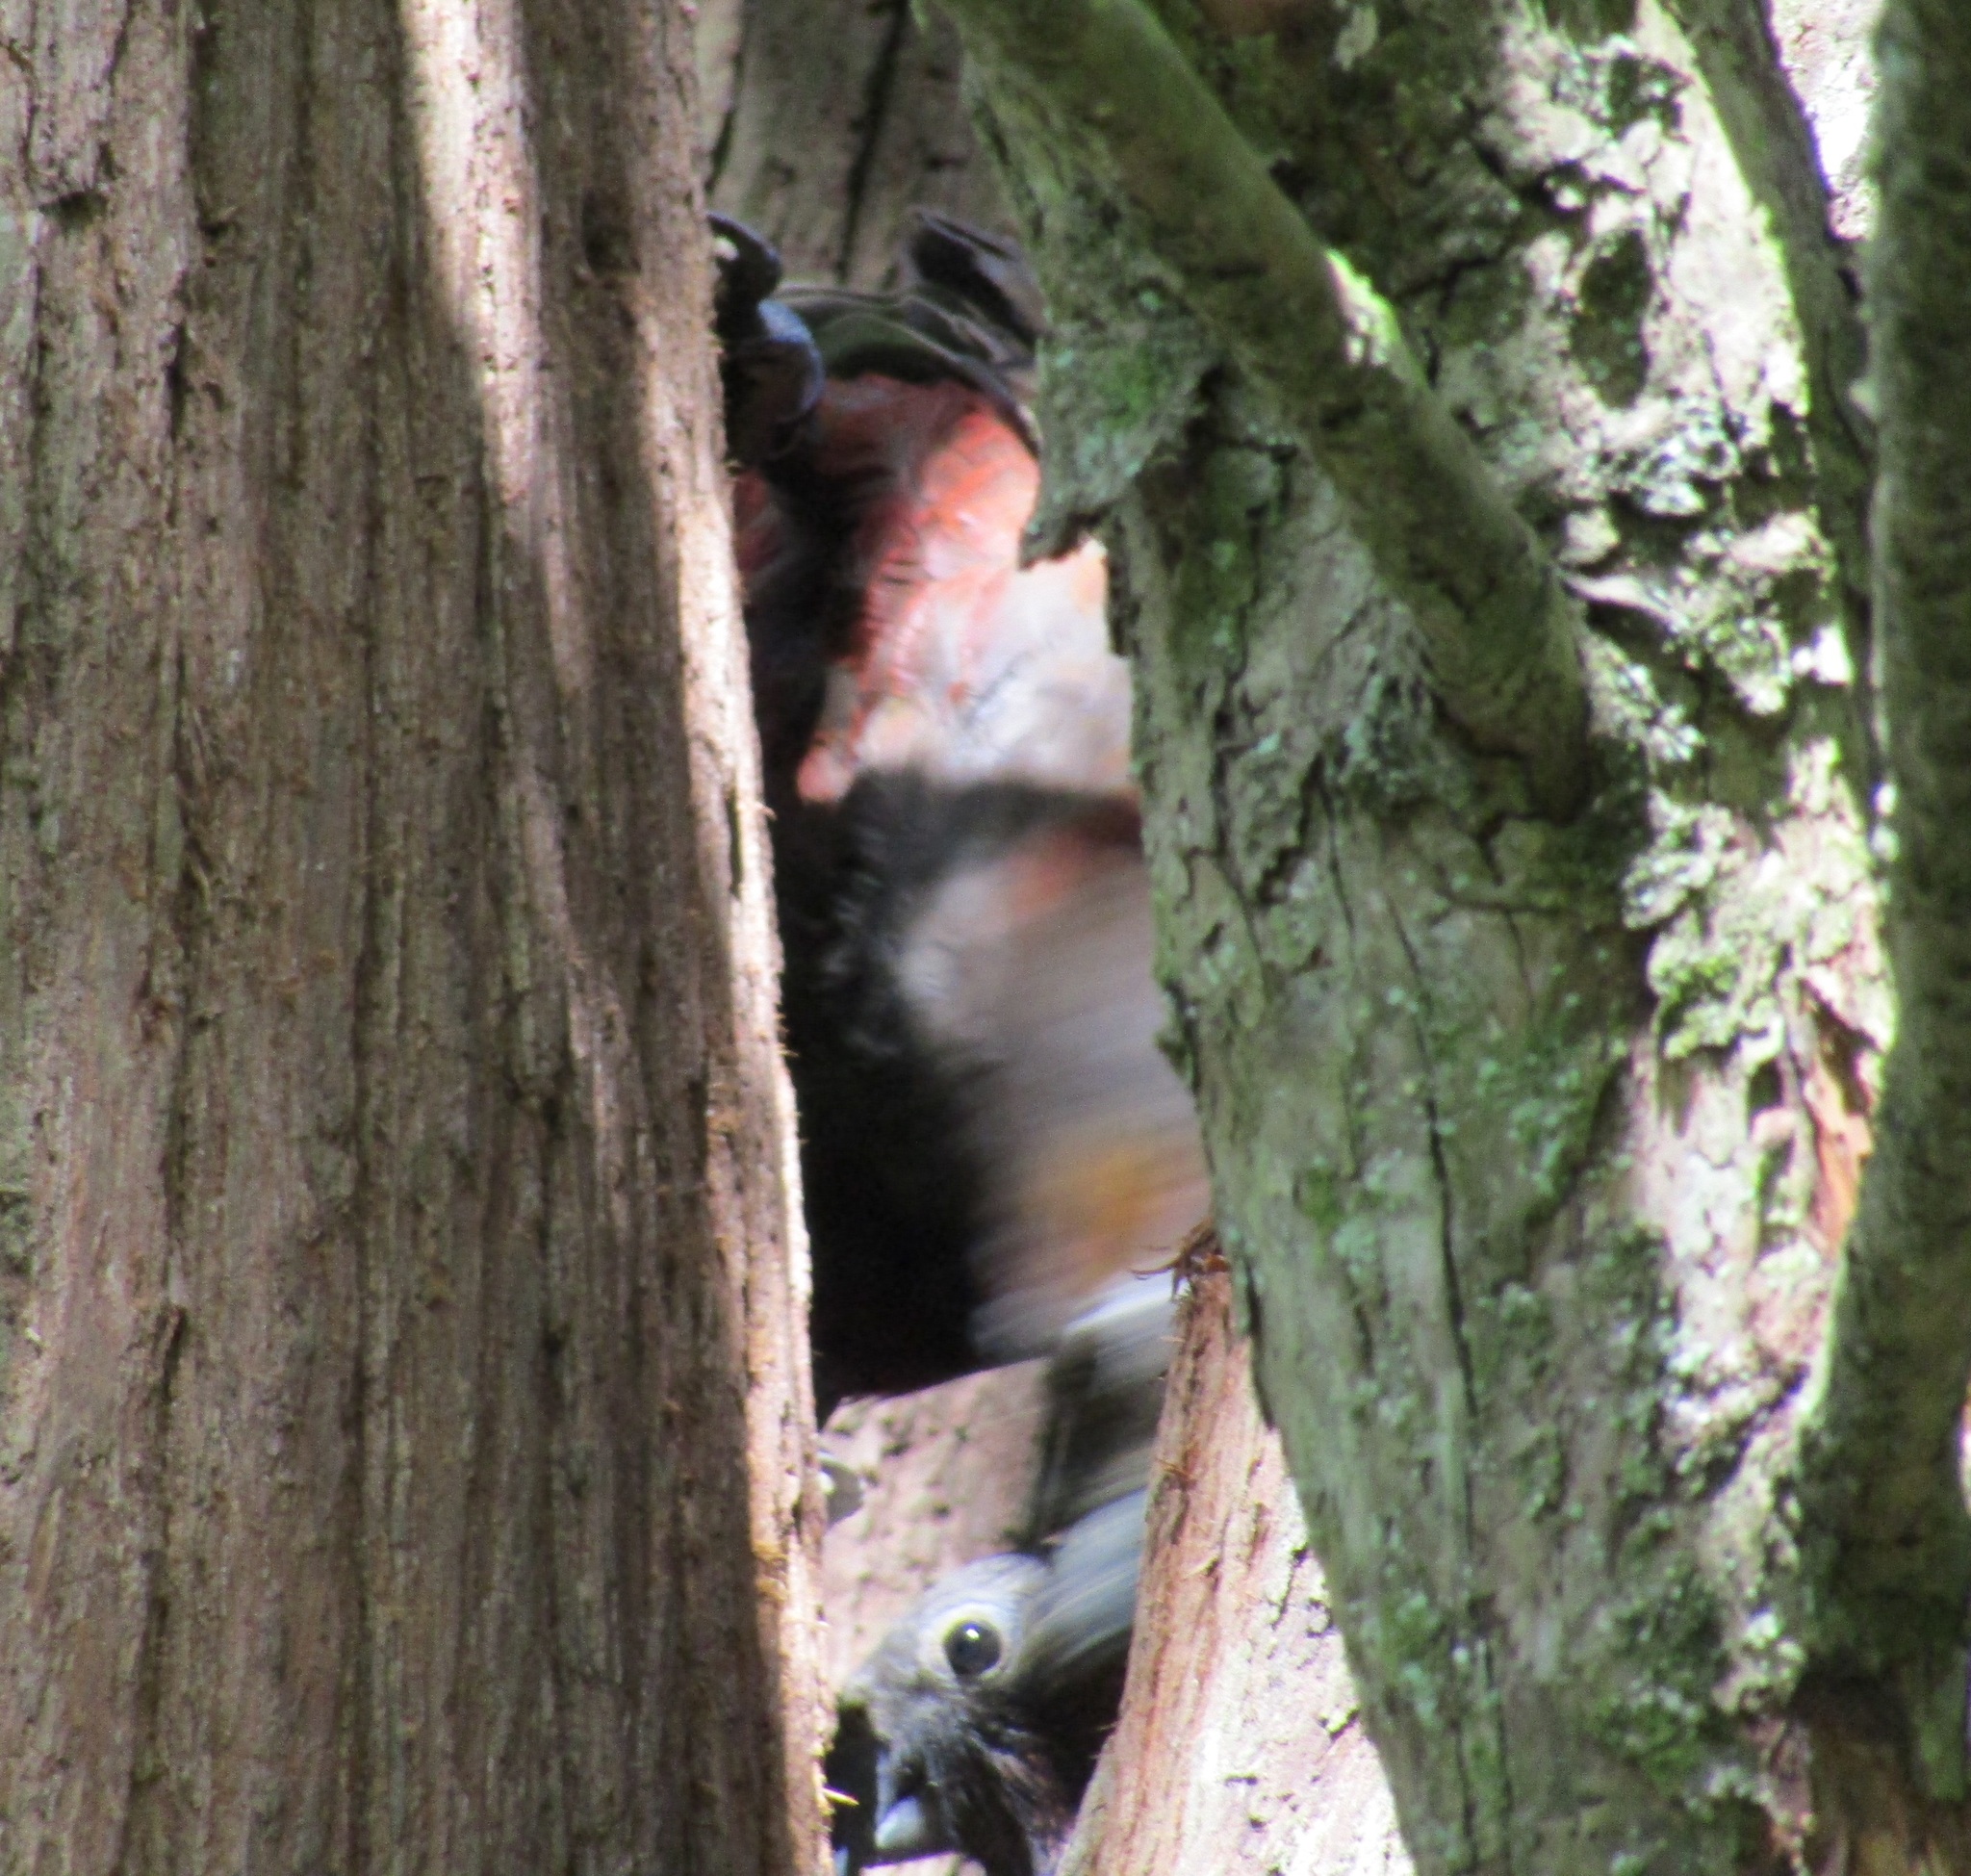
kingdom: Animalia
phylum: Chordata
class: Aves
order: Psittaciformes
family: Psittacidae
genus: Nestor
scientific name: Nestor meridionalis
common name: New zealand kaka
